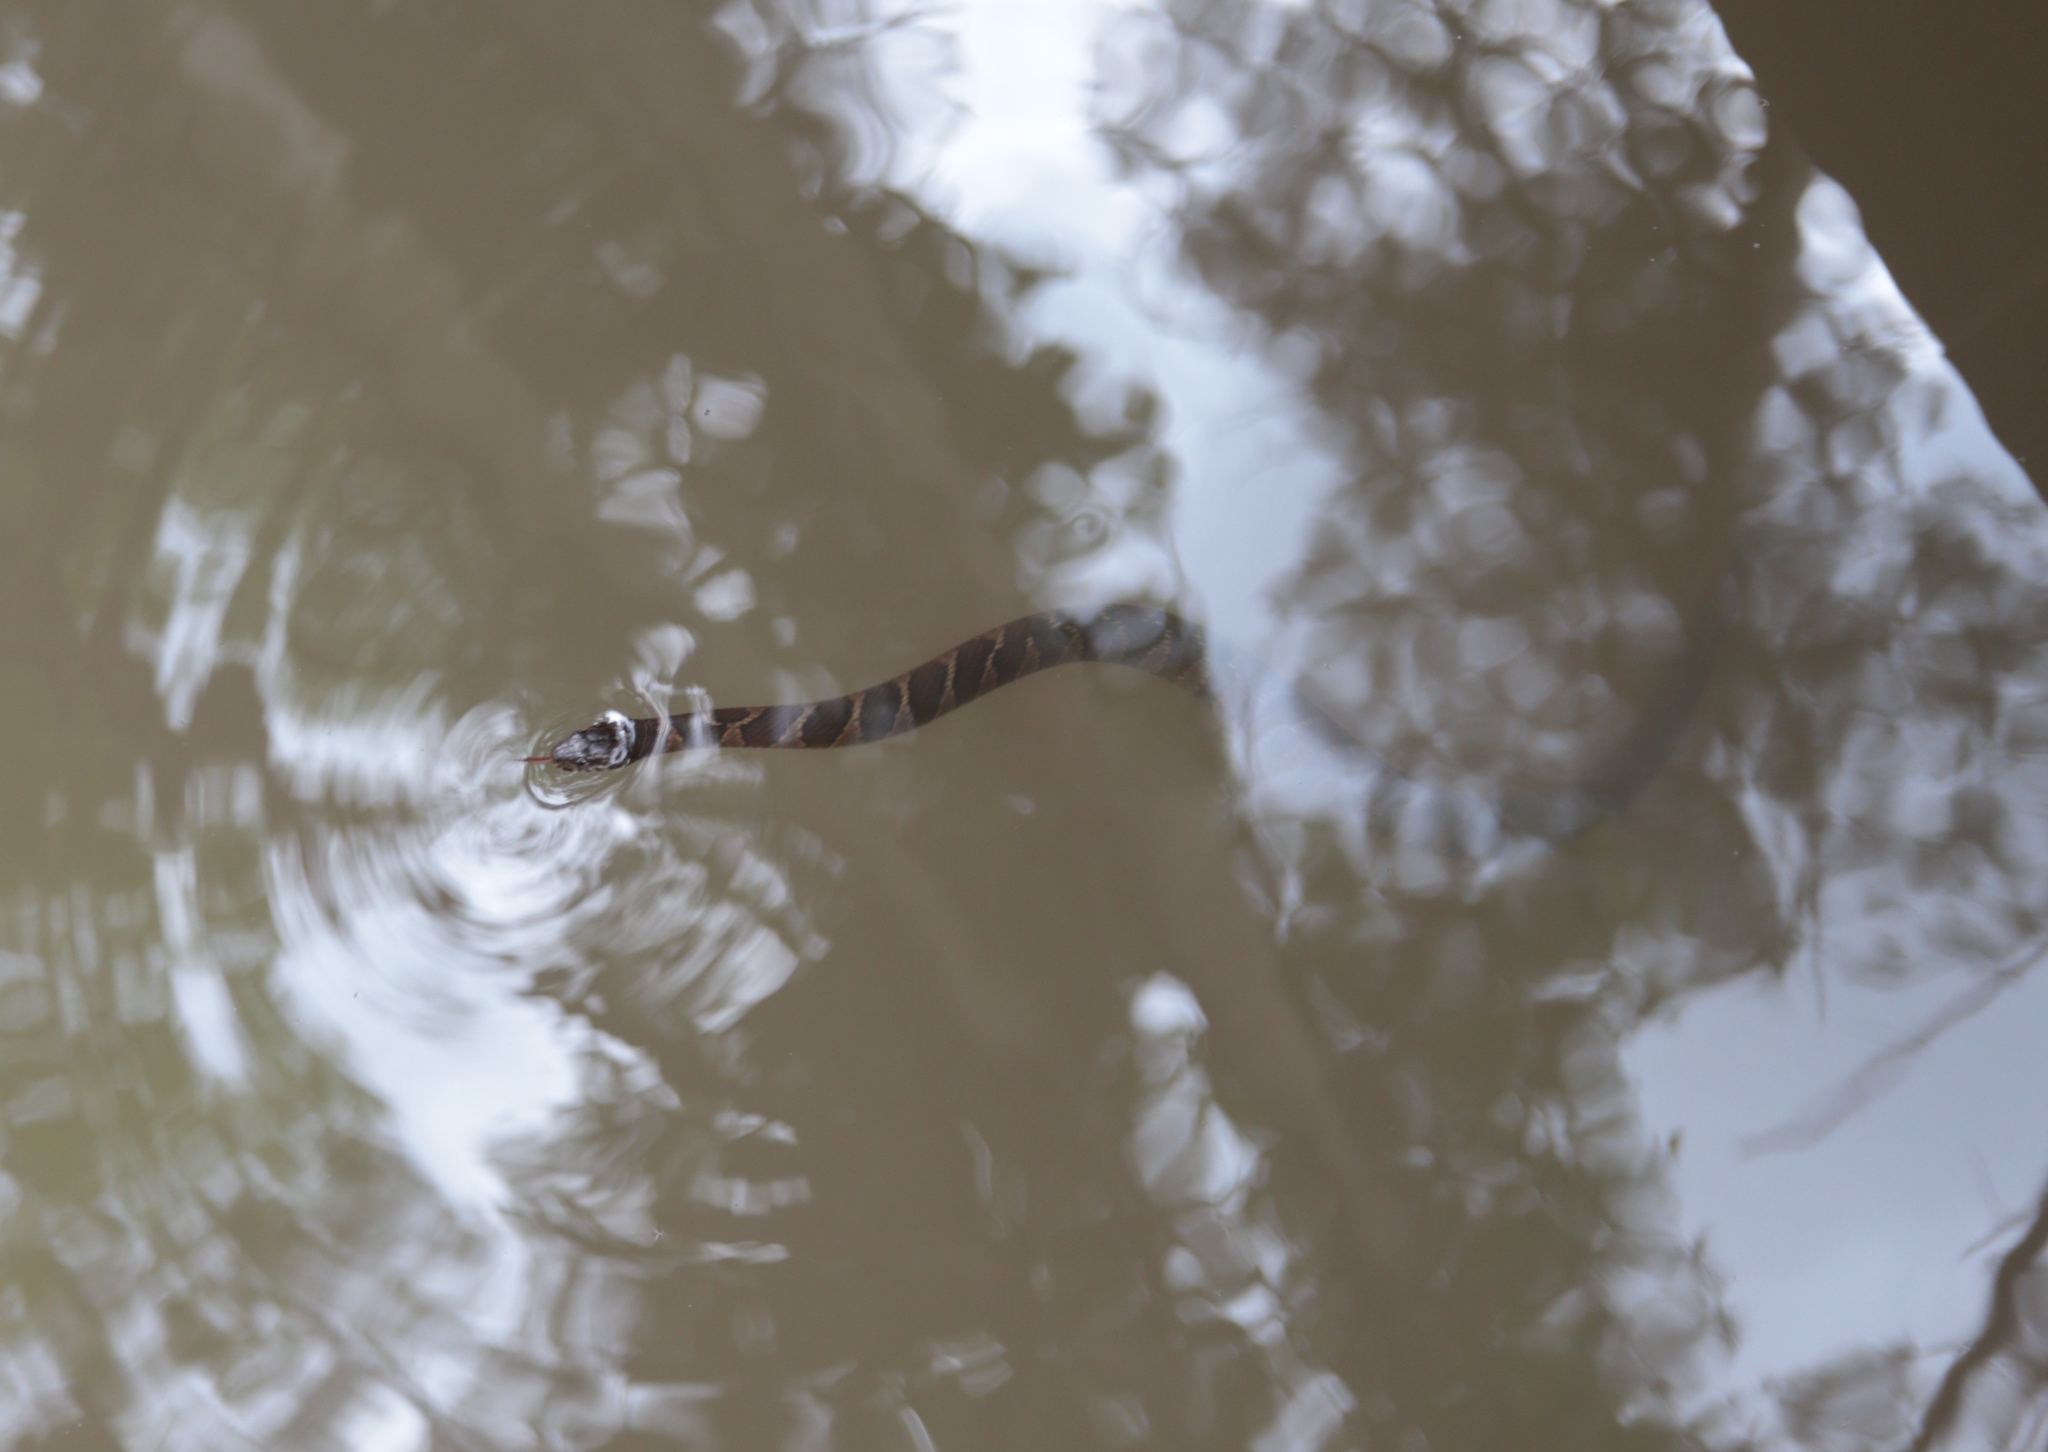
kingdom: Animalia
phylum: Chordata
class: Squamata
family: Colubridae
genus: Nerodia
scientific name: Nerodia sipedon
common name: Northern water snake
